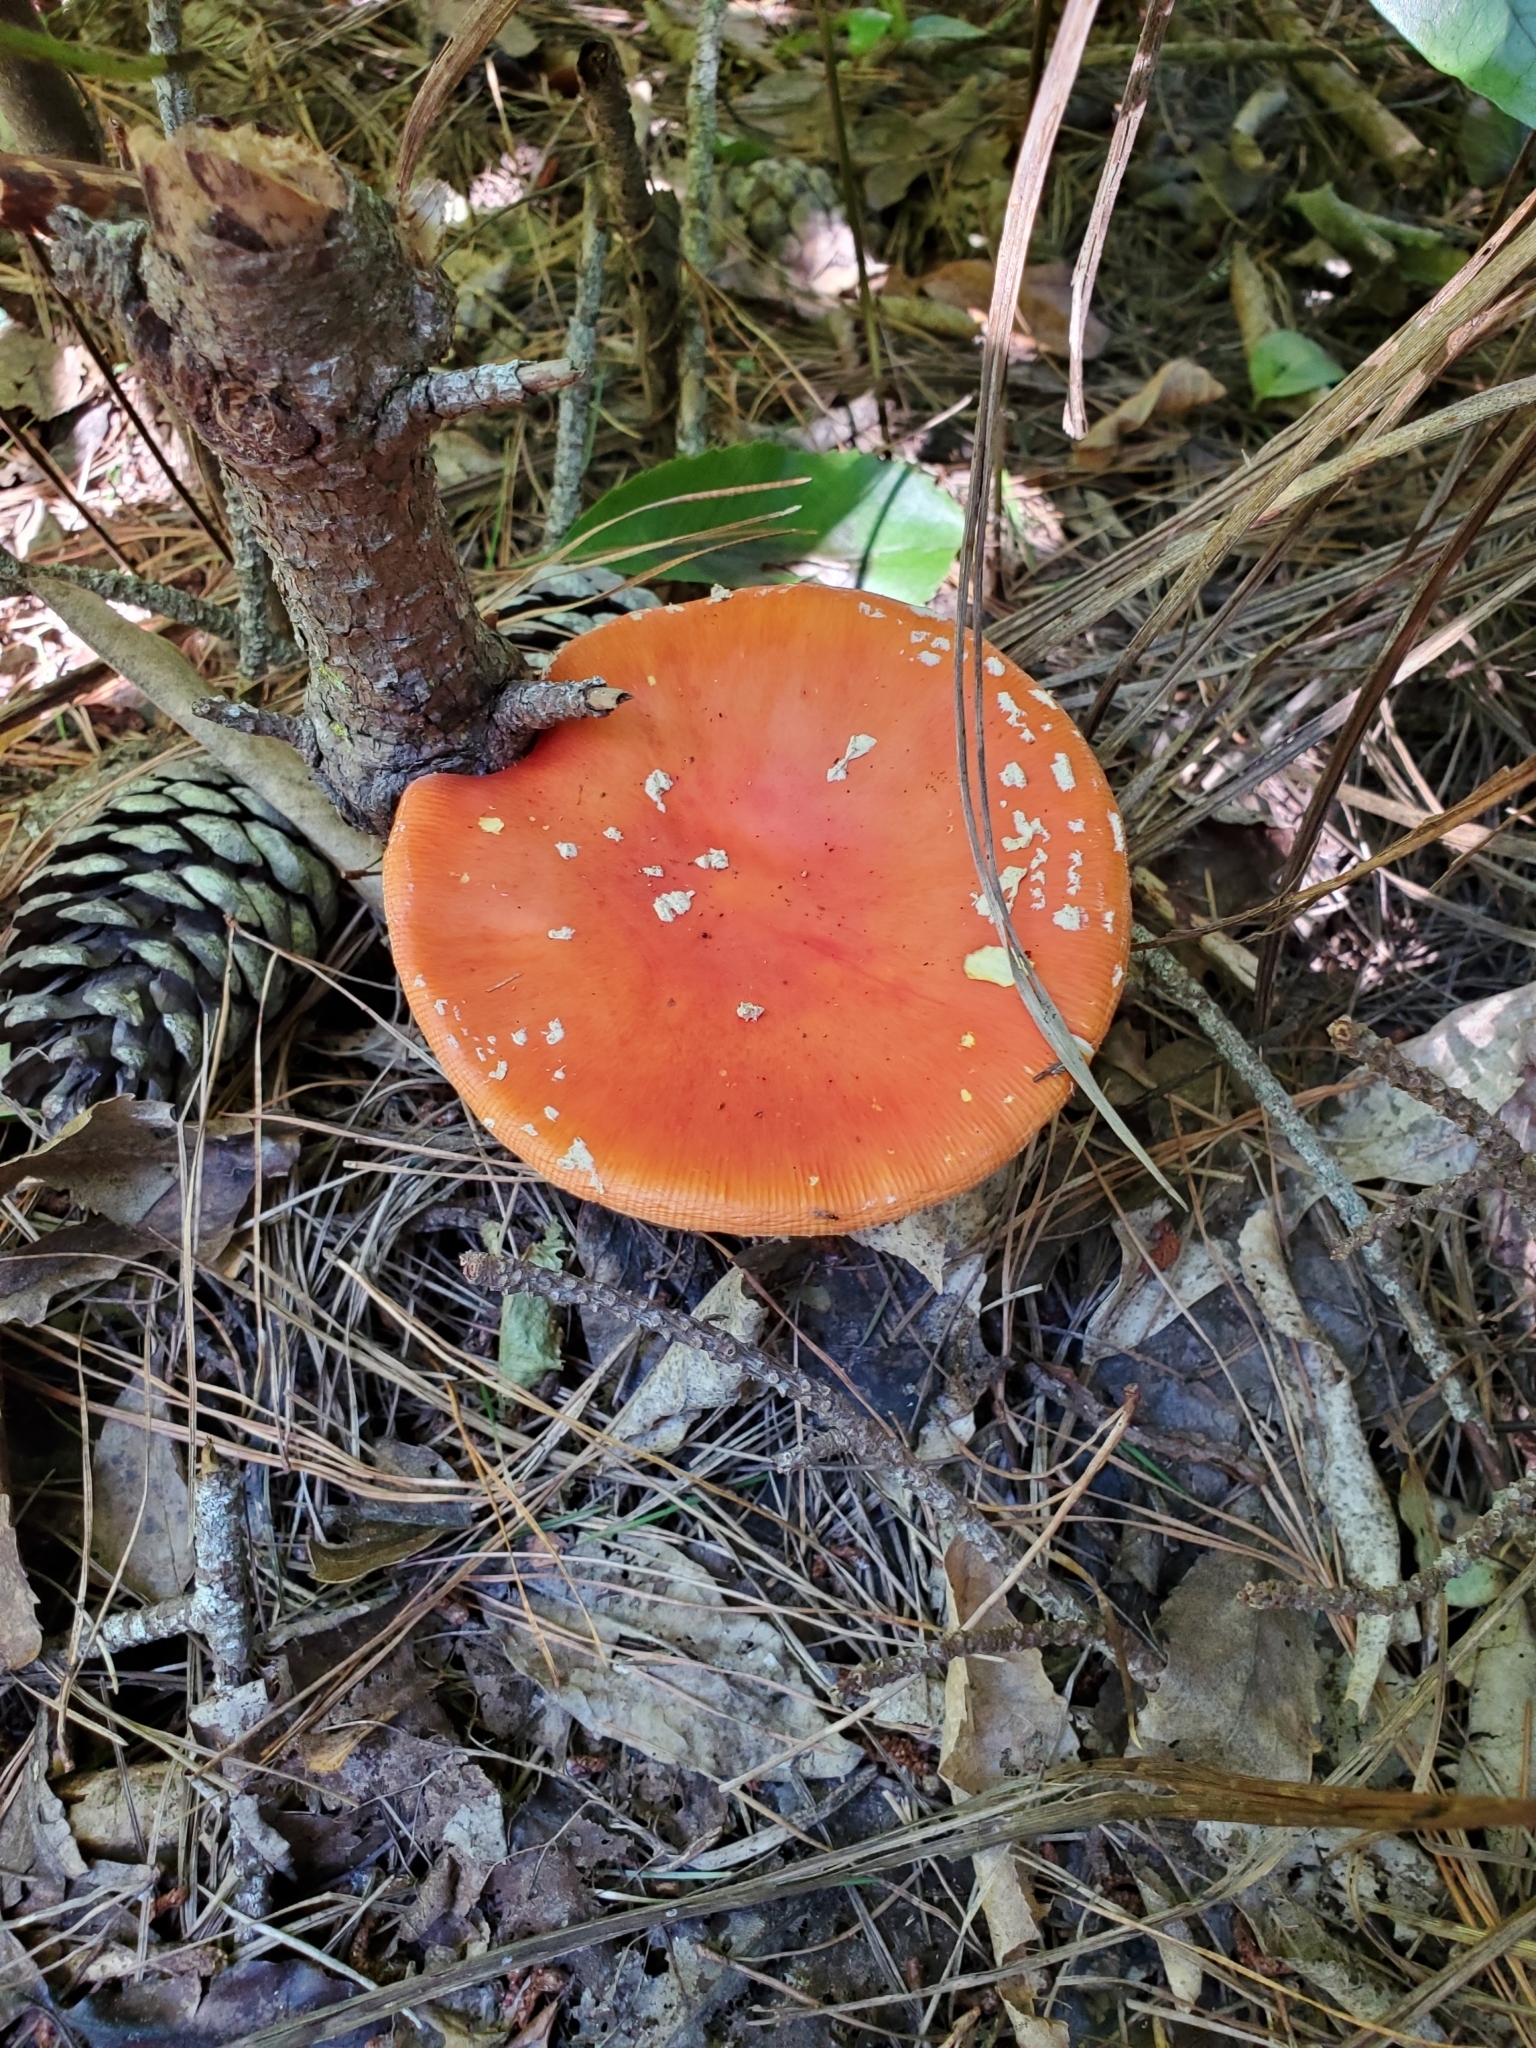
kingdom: Fungi
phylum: Basidiomycota
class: Agaricomycetes
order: Agaricales
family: Amanitaceae
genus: Amanita
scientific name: Amanita muscaria
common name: Fly agaric
